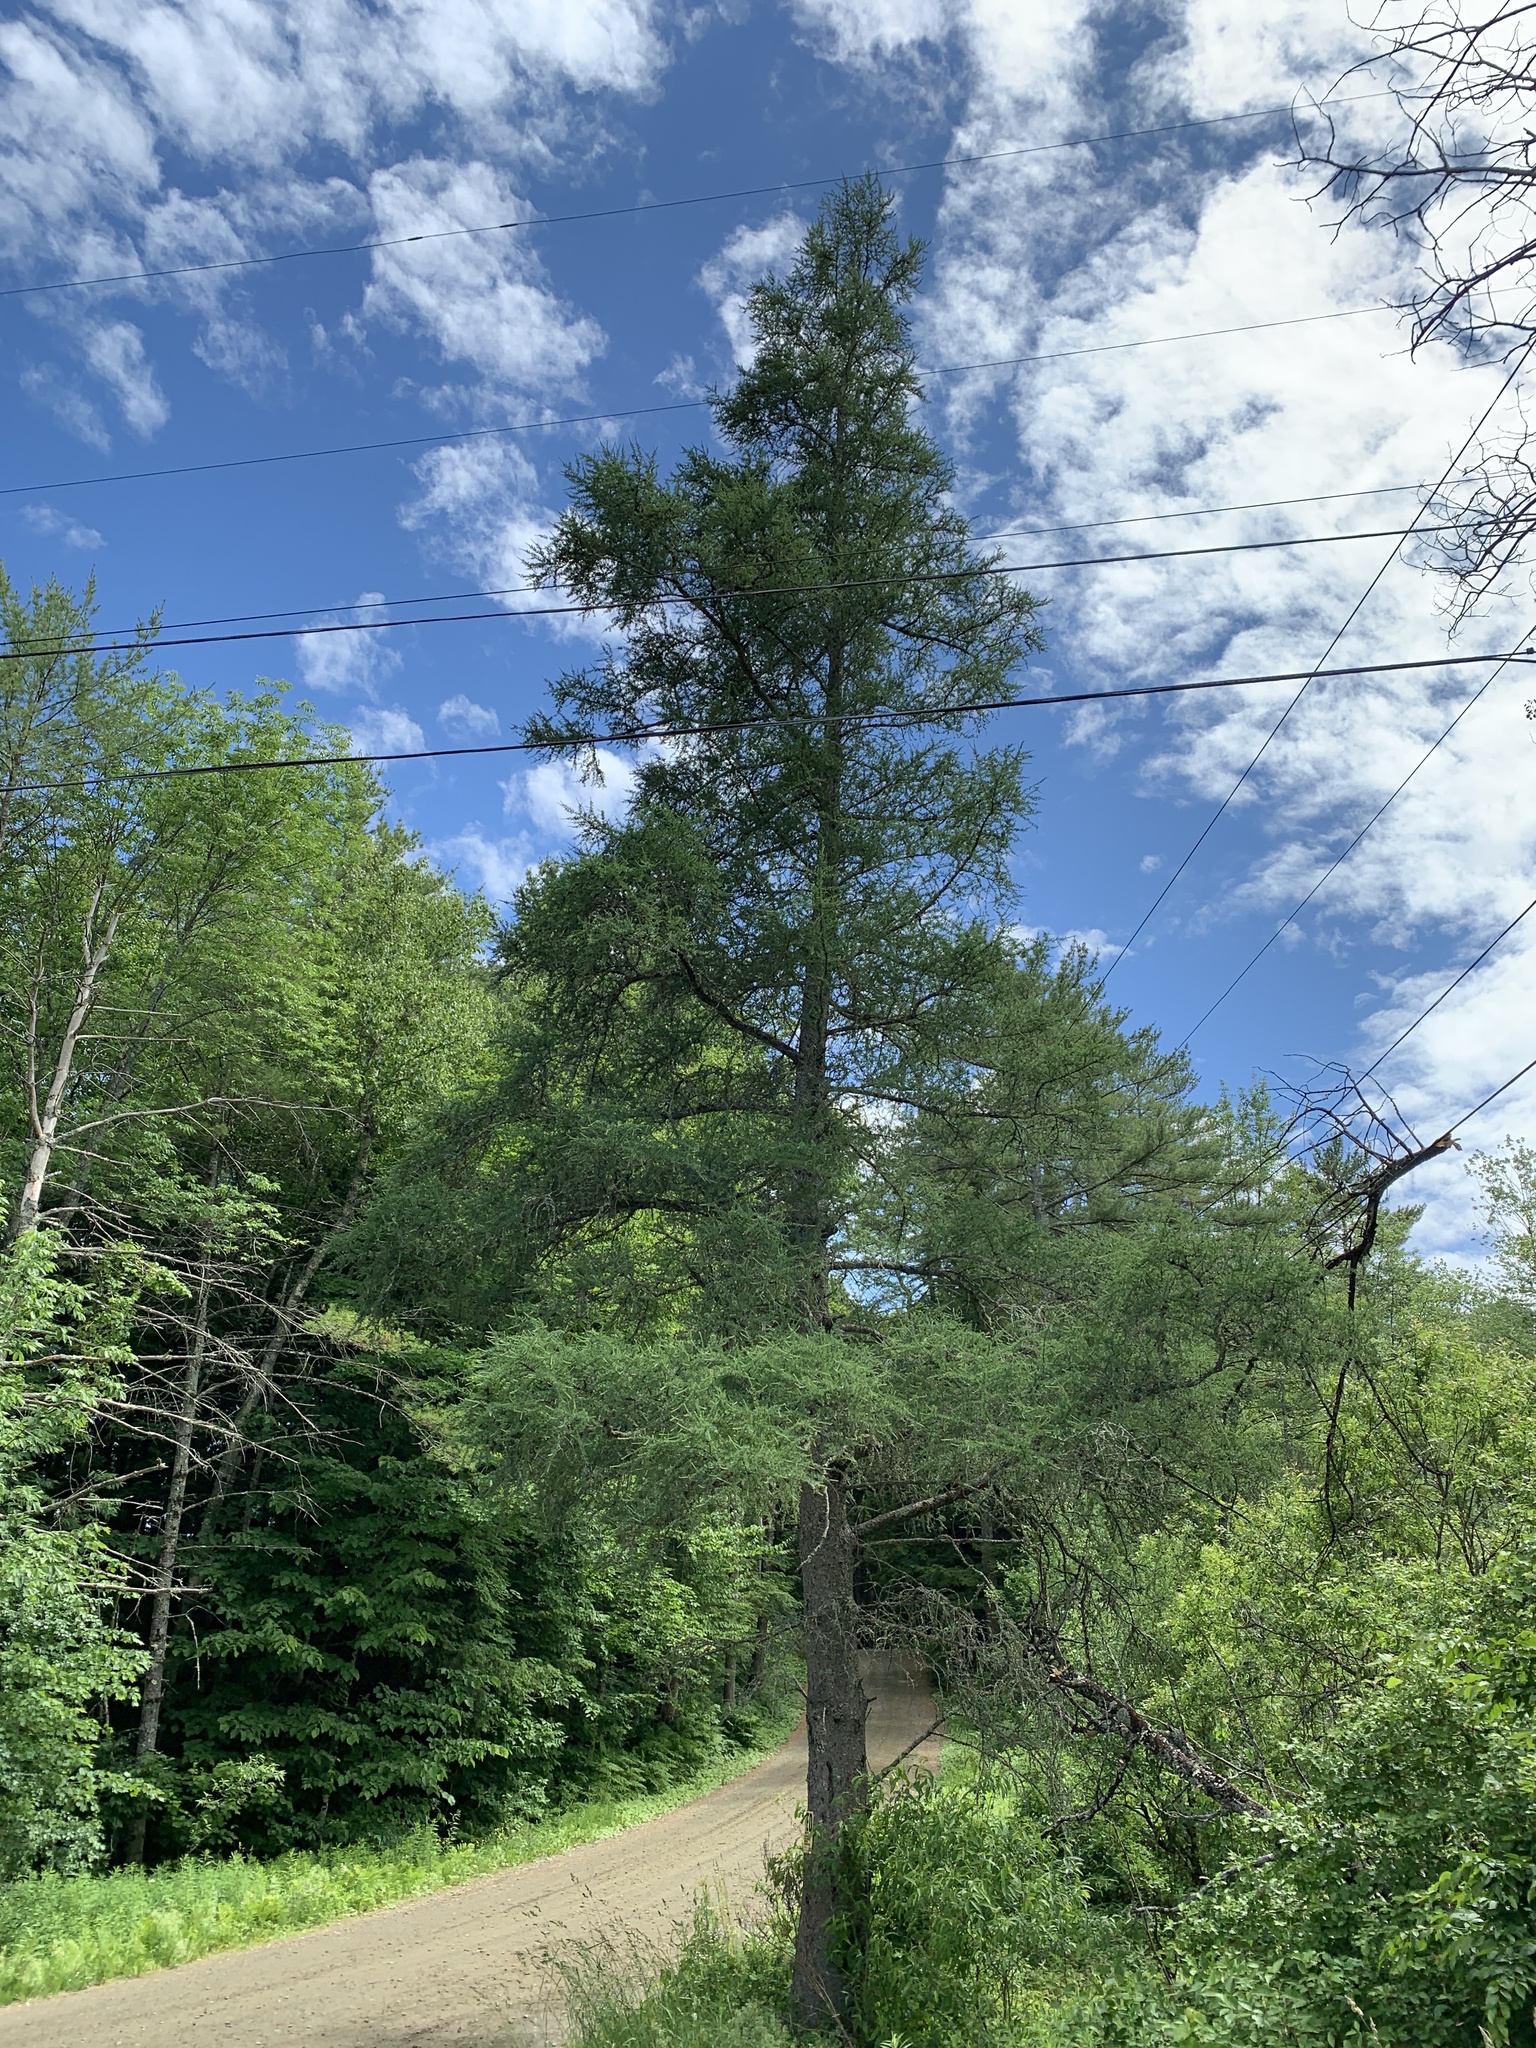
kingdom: Plantae
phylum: Tracheophyta
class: Pinopsida
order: Pinales
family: Pinaceae
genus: Larix
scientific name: Larix laricina
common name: American larch
